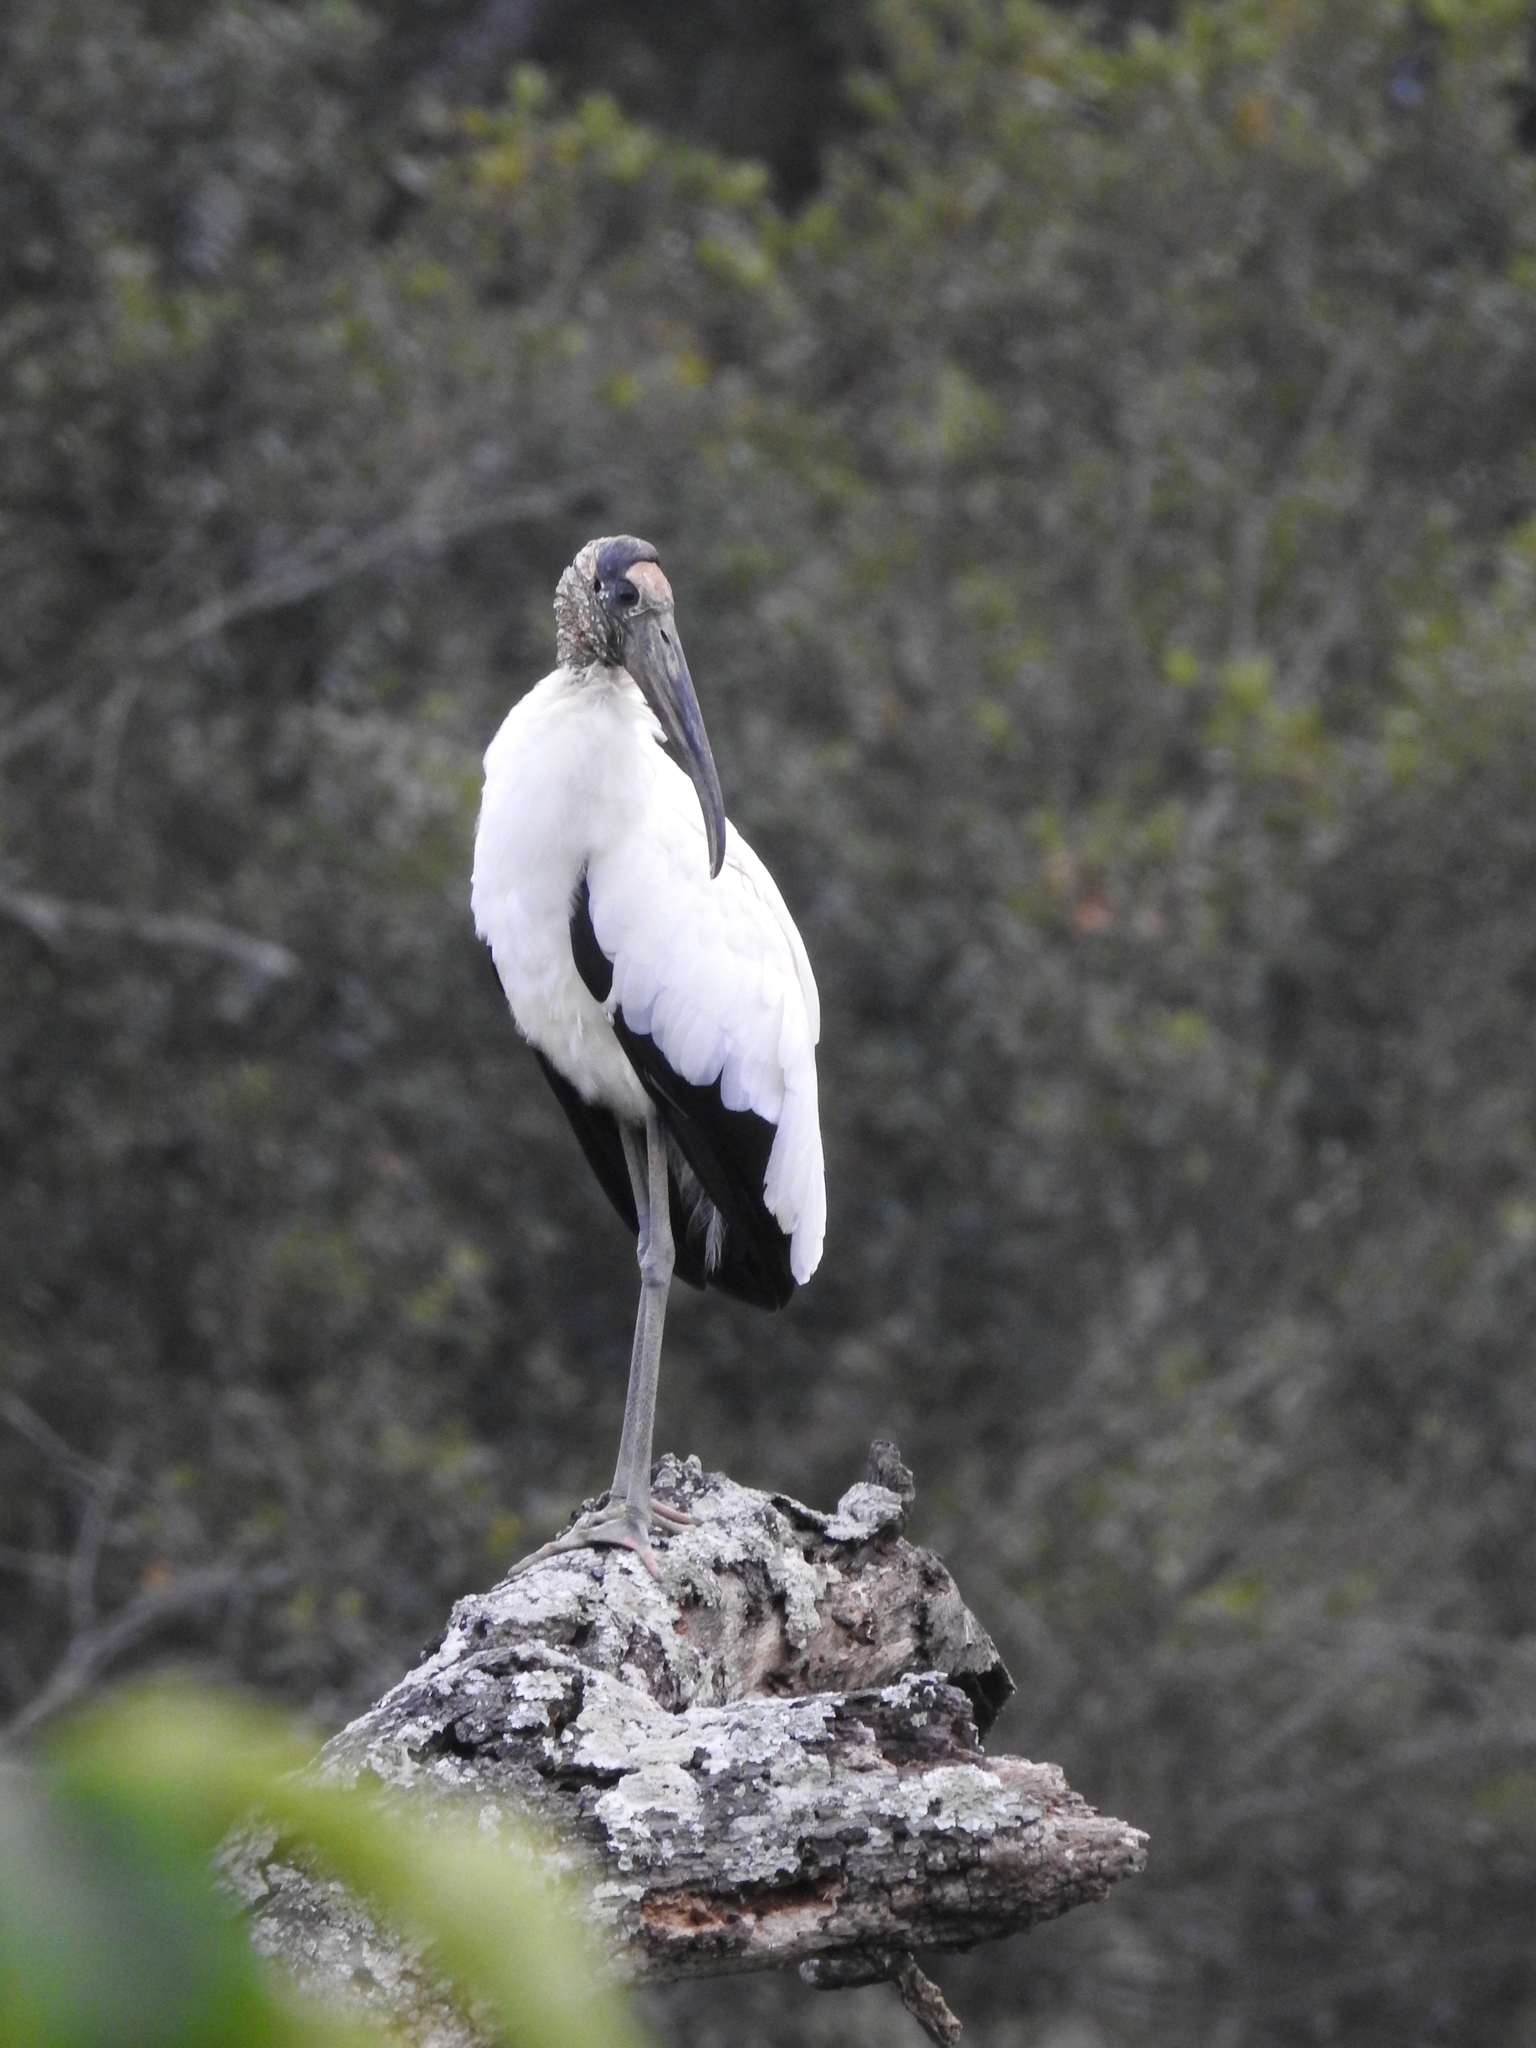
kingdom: Animalia
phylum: Chordata
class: Aves
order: Ciconiiformes
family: Ciconiidae
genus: Mycteria
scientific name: Mycteria americana
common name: Wood stork
